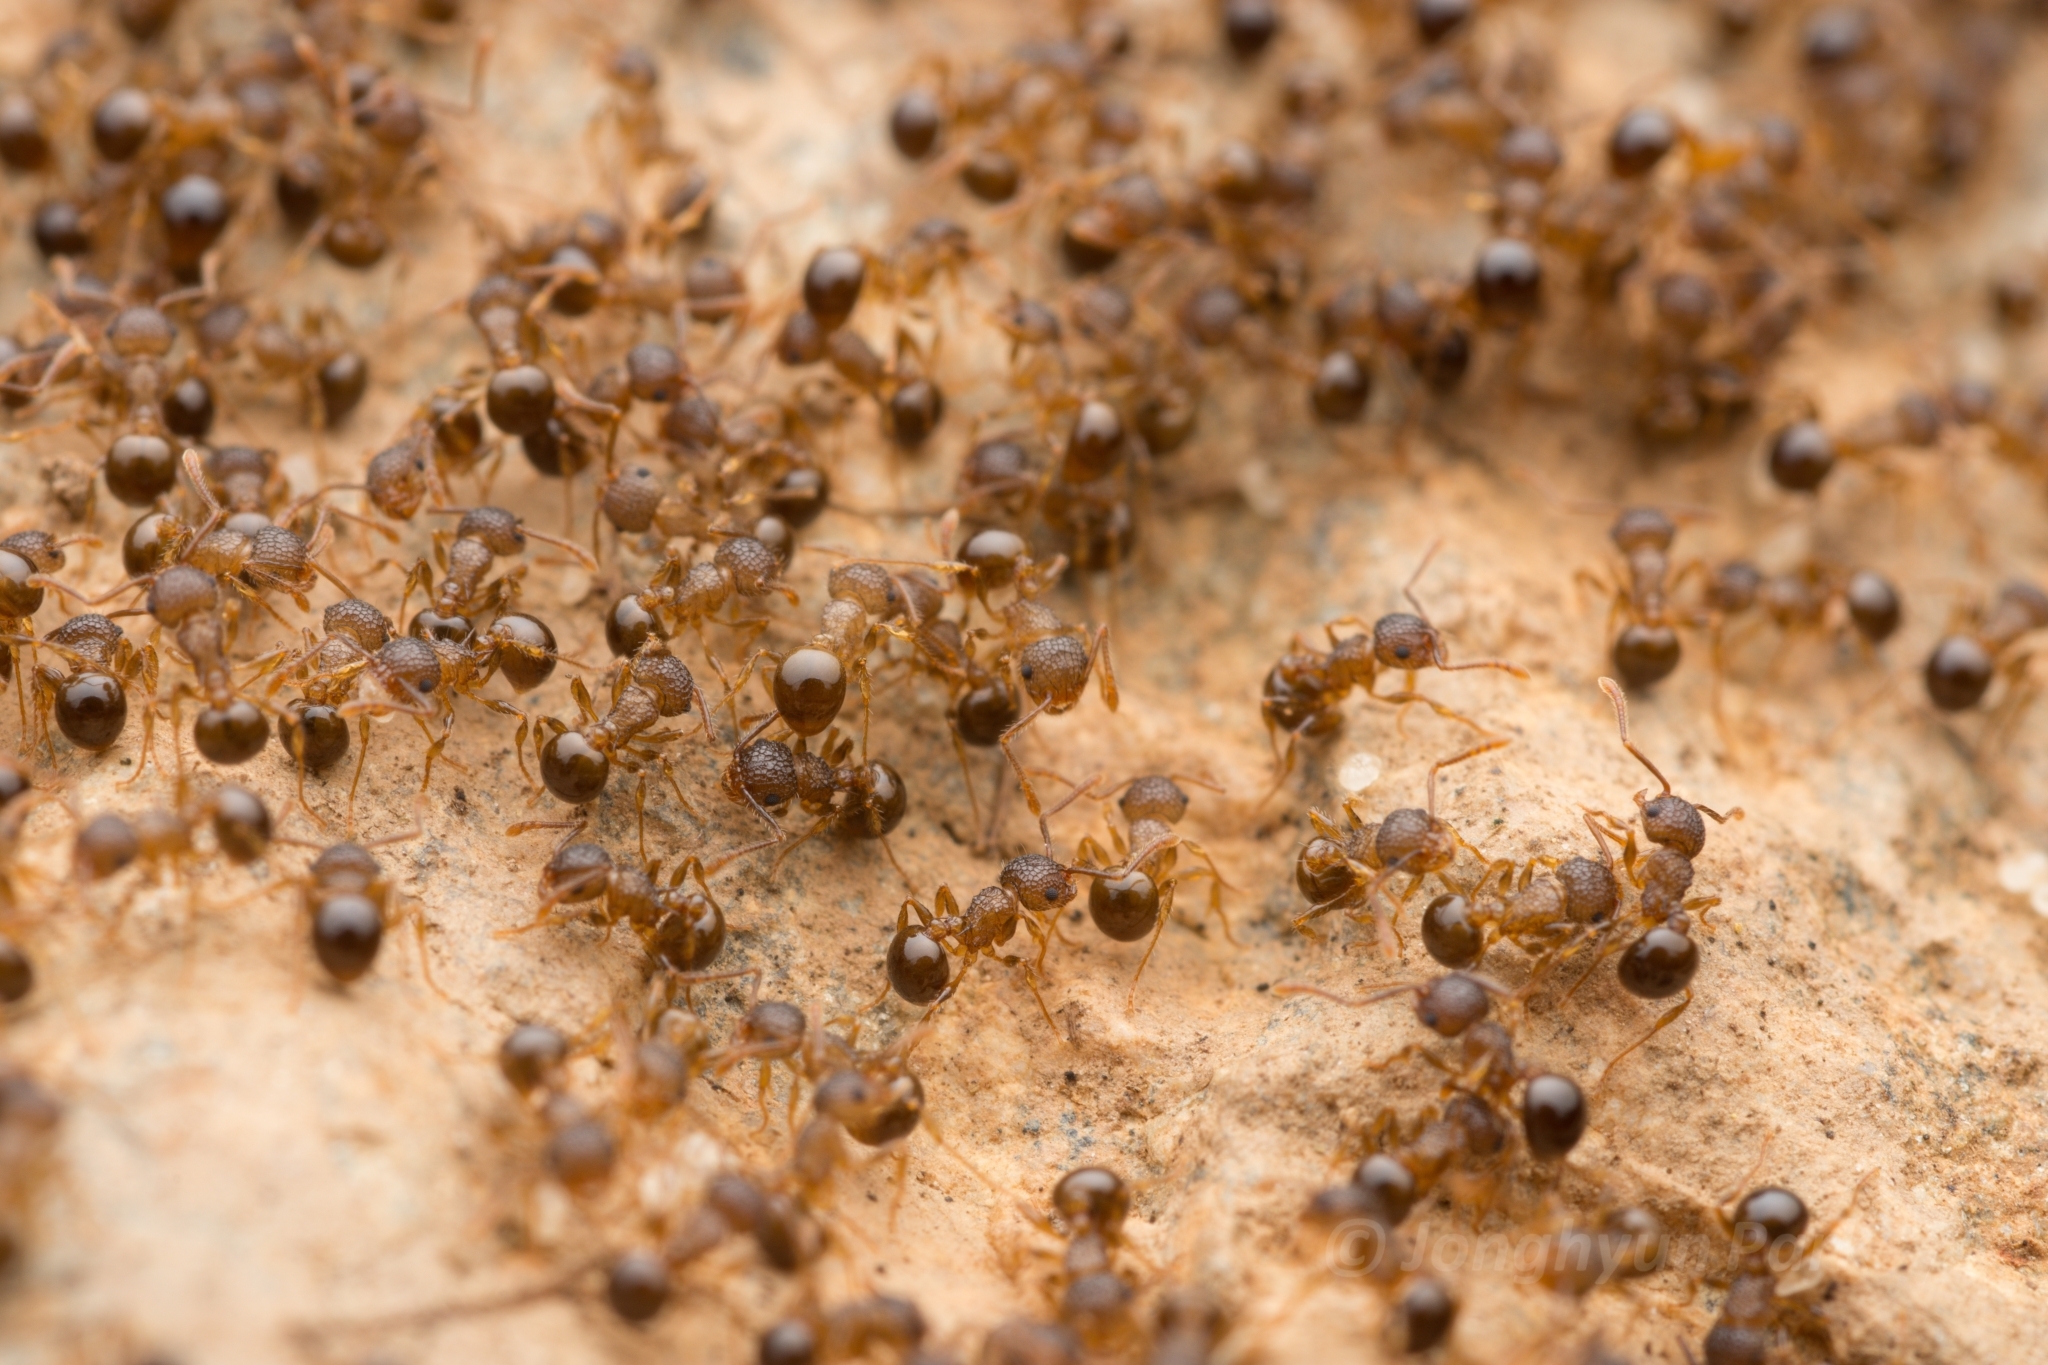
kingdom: Animalia
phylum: Arthropoda
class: Insecta
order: Hymenoptera
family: Formicidae
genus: Pristomyrmex
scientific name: Pristomyrmex punctatus
